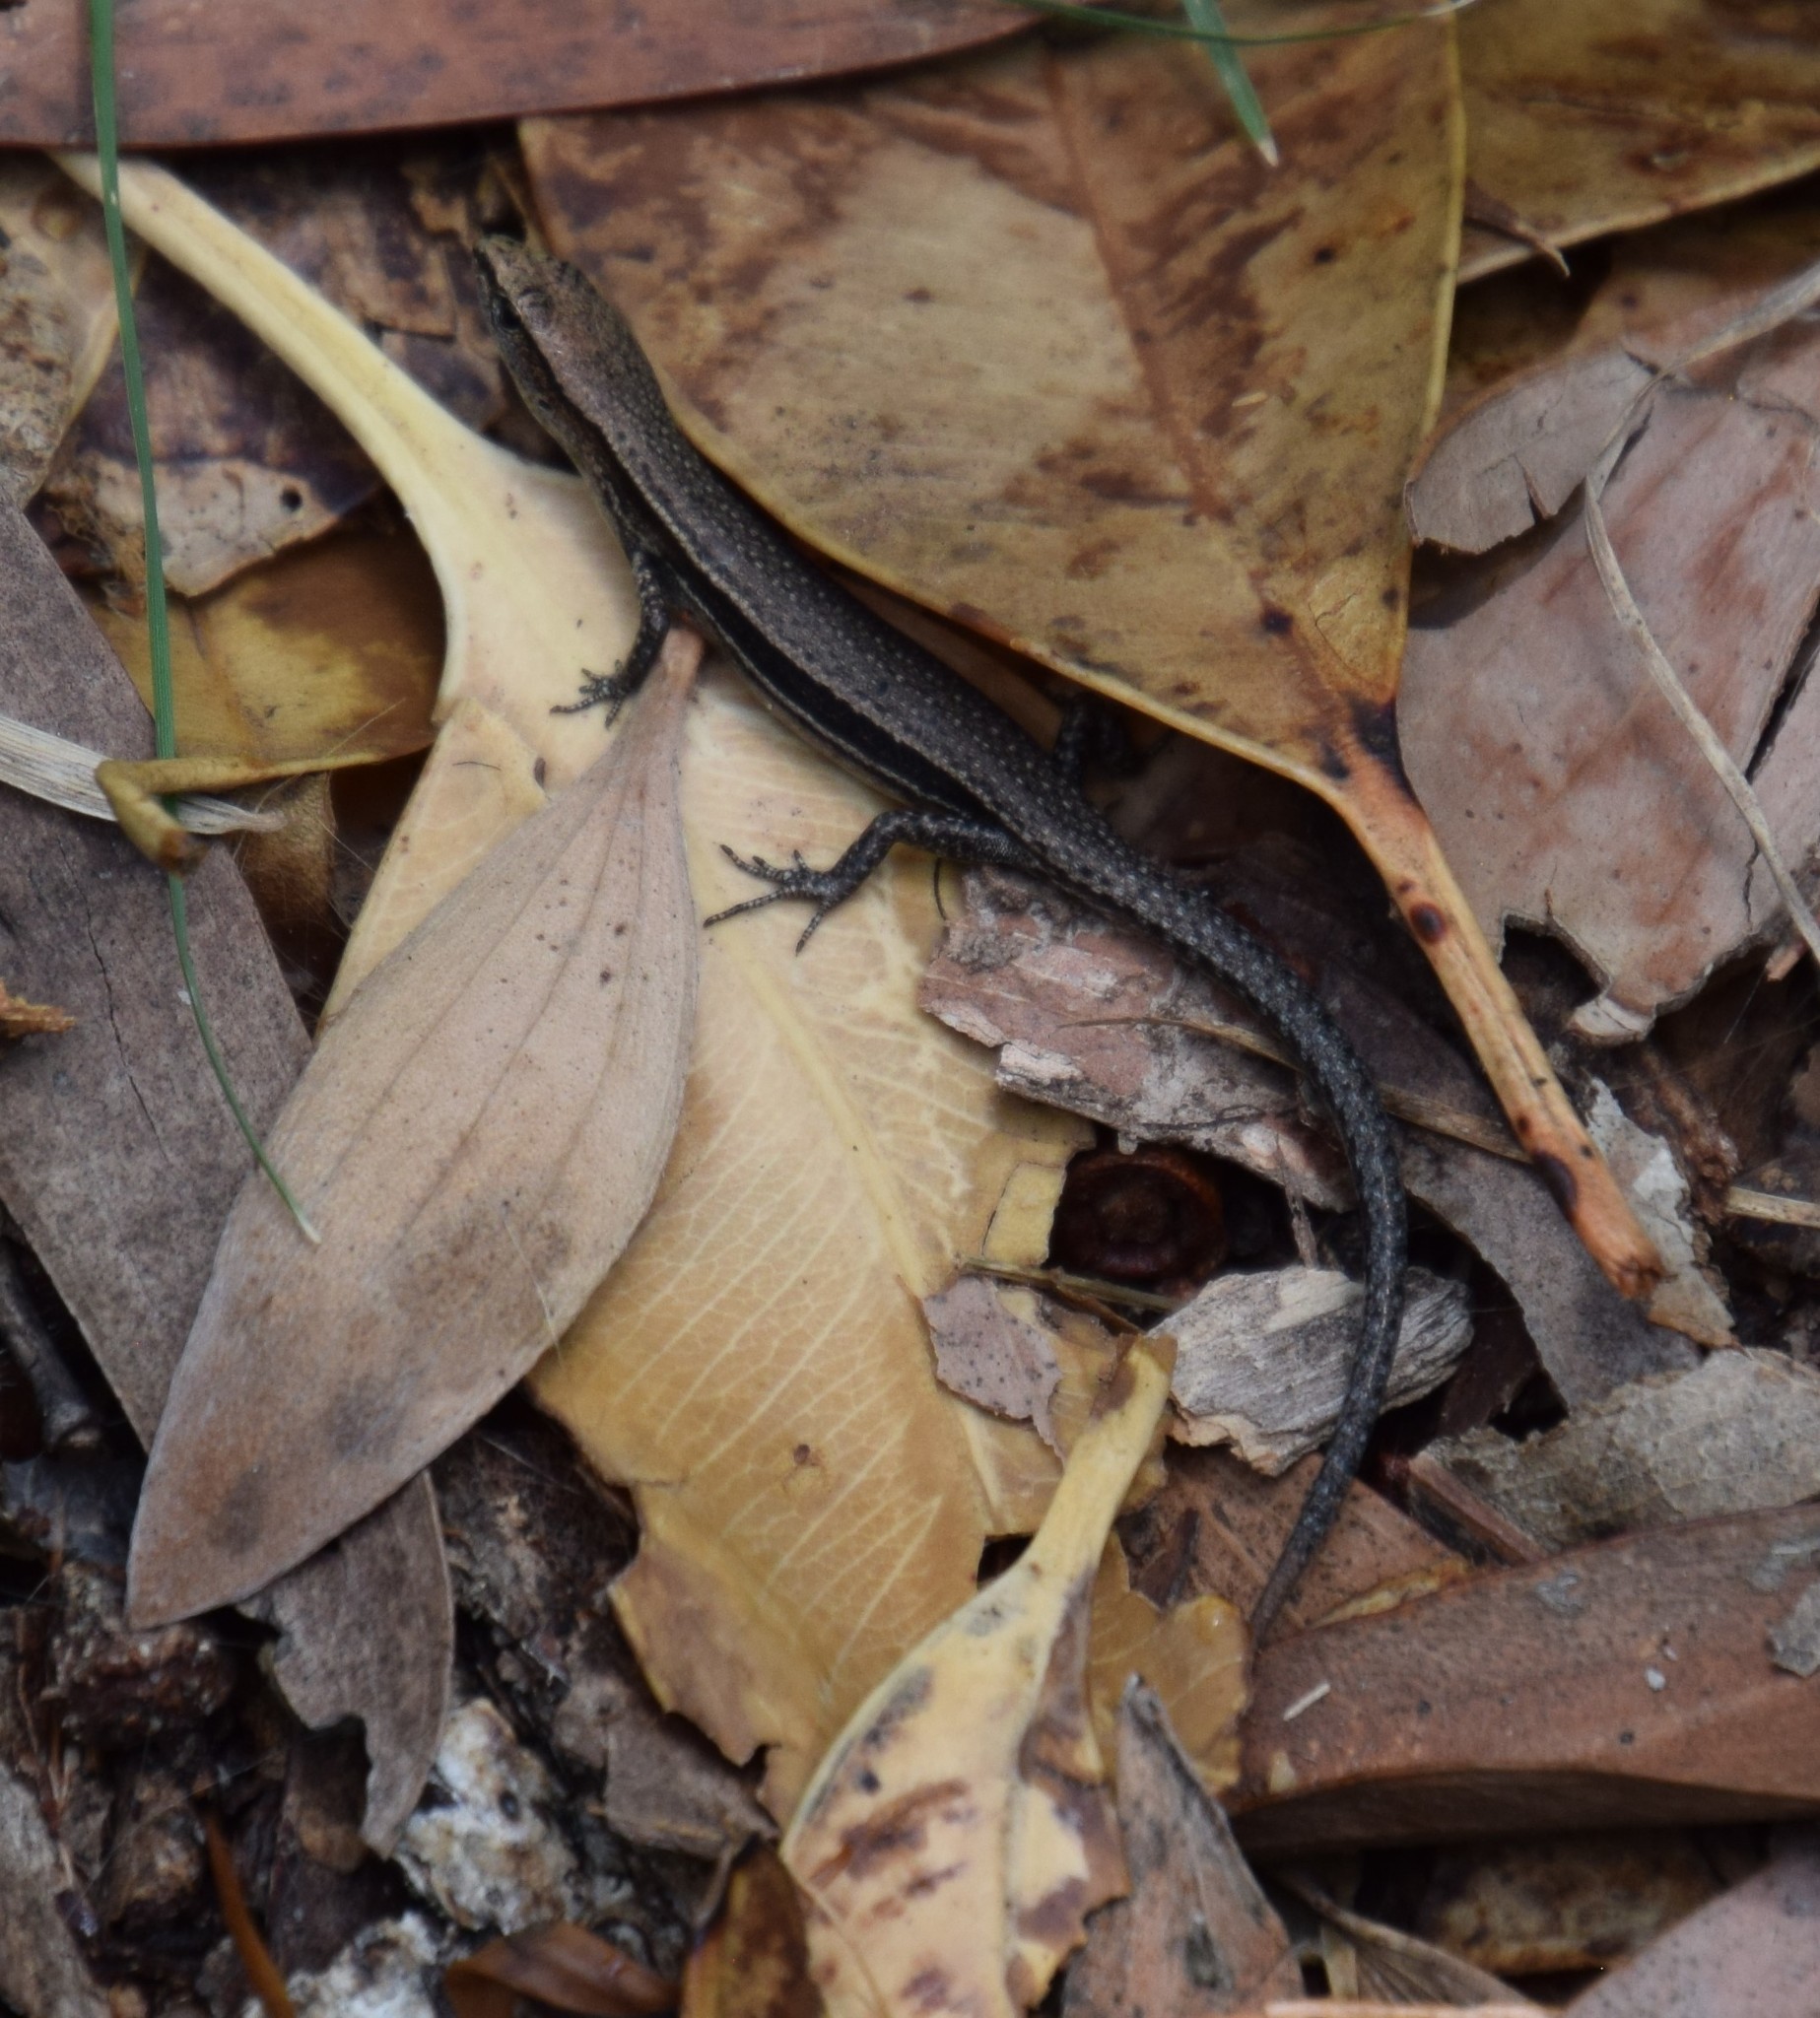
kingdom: Animalia
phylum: Chordata
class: Squamata
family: Scincidae
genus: Lampropholis
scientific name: Lampropholis delicata
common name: Plague skink
